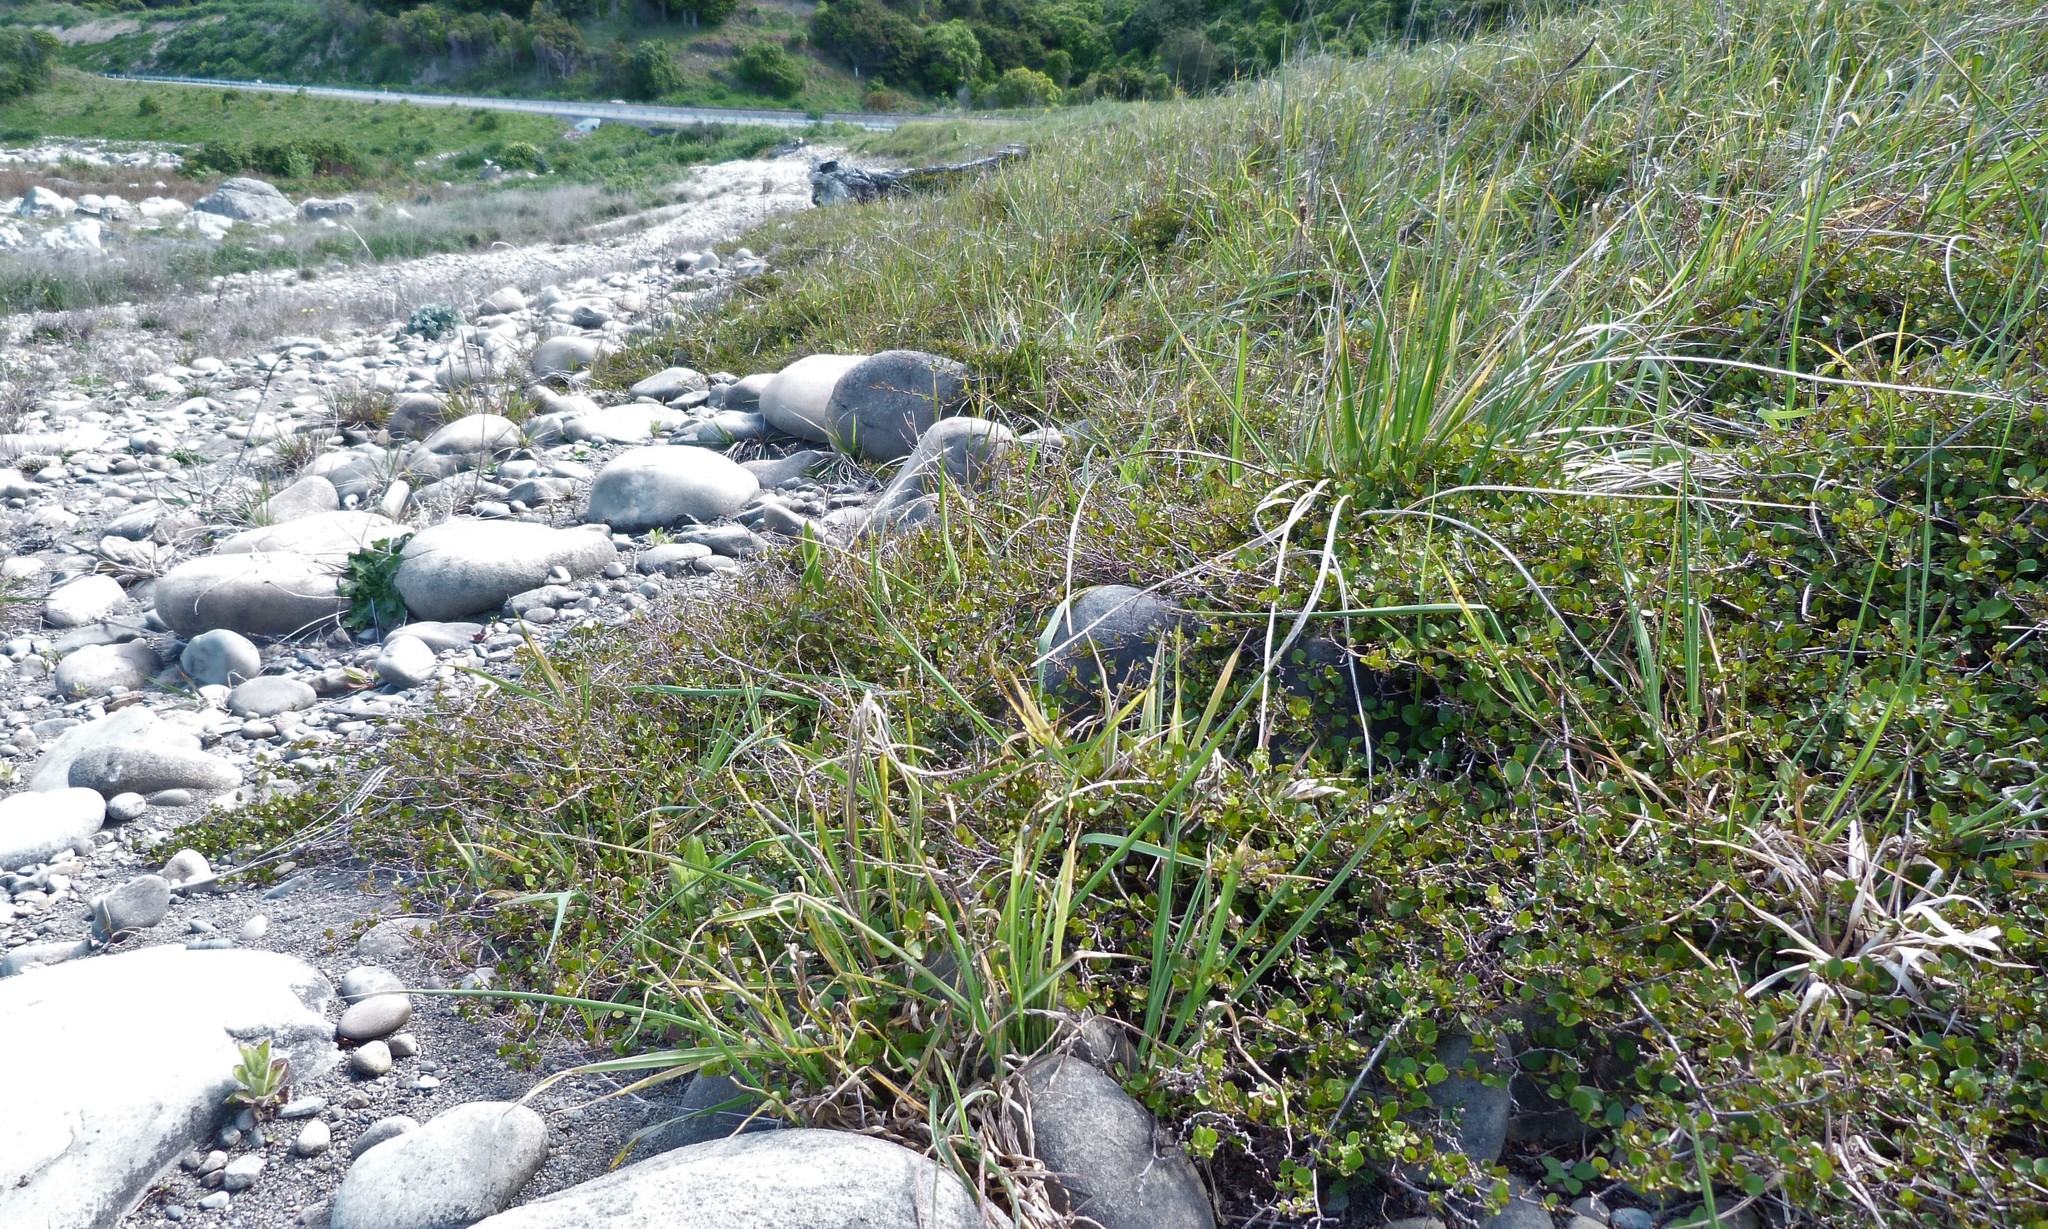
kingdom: Plantae
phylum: Tracheophyta
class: Magnoliopsida
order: Caryophyllales
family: Polygonaceae
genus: Muehlenbeckia
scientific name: Muehlenbeckia complexa
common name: Wireplant
